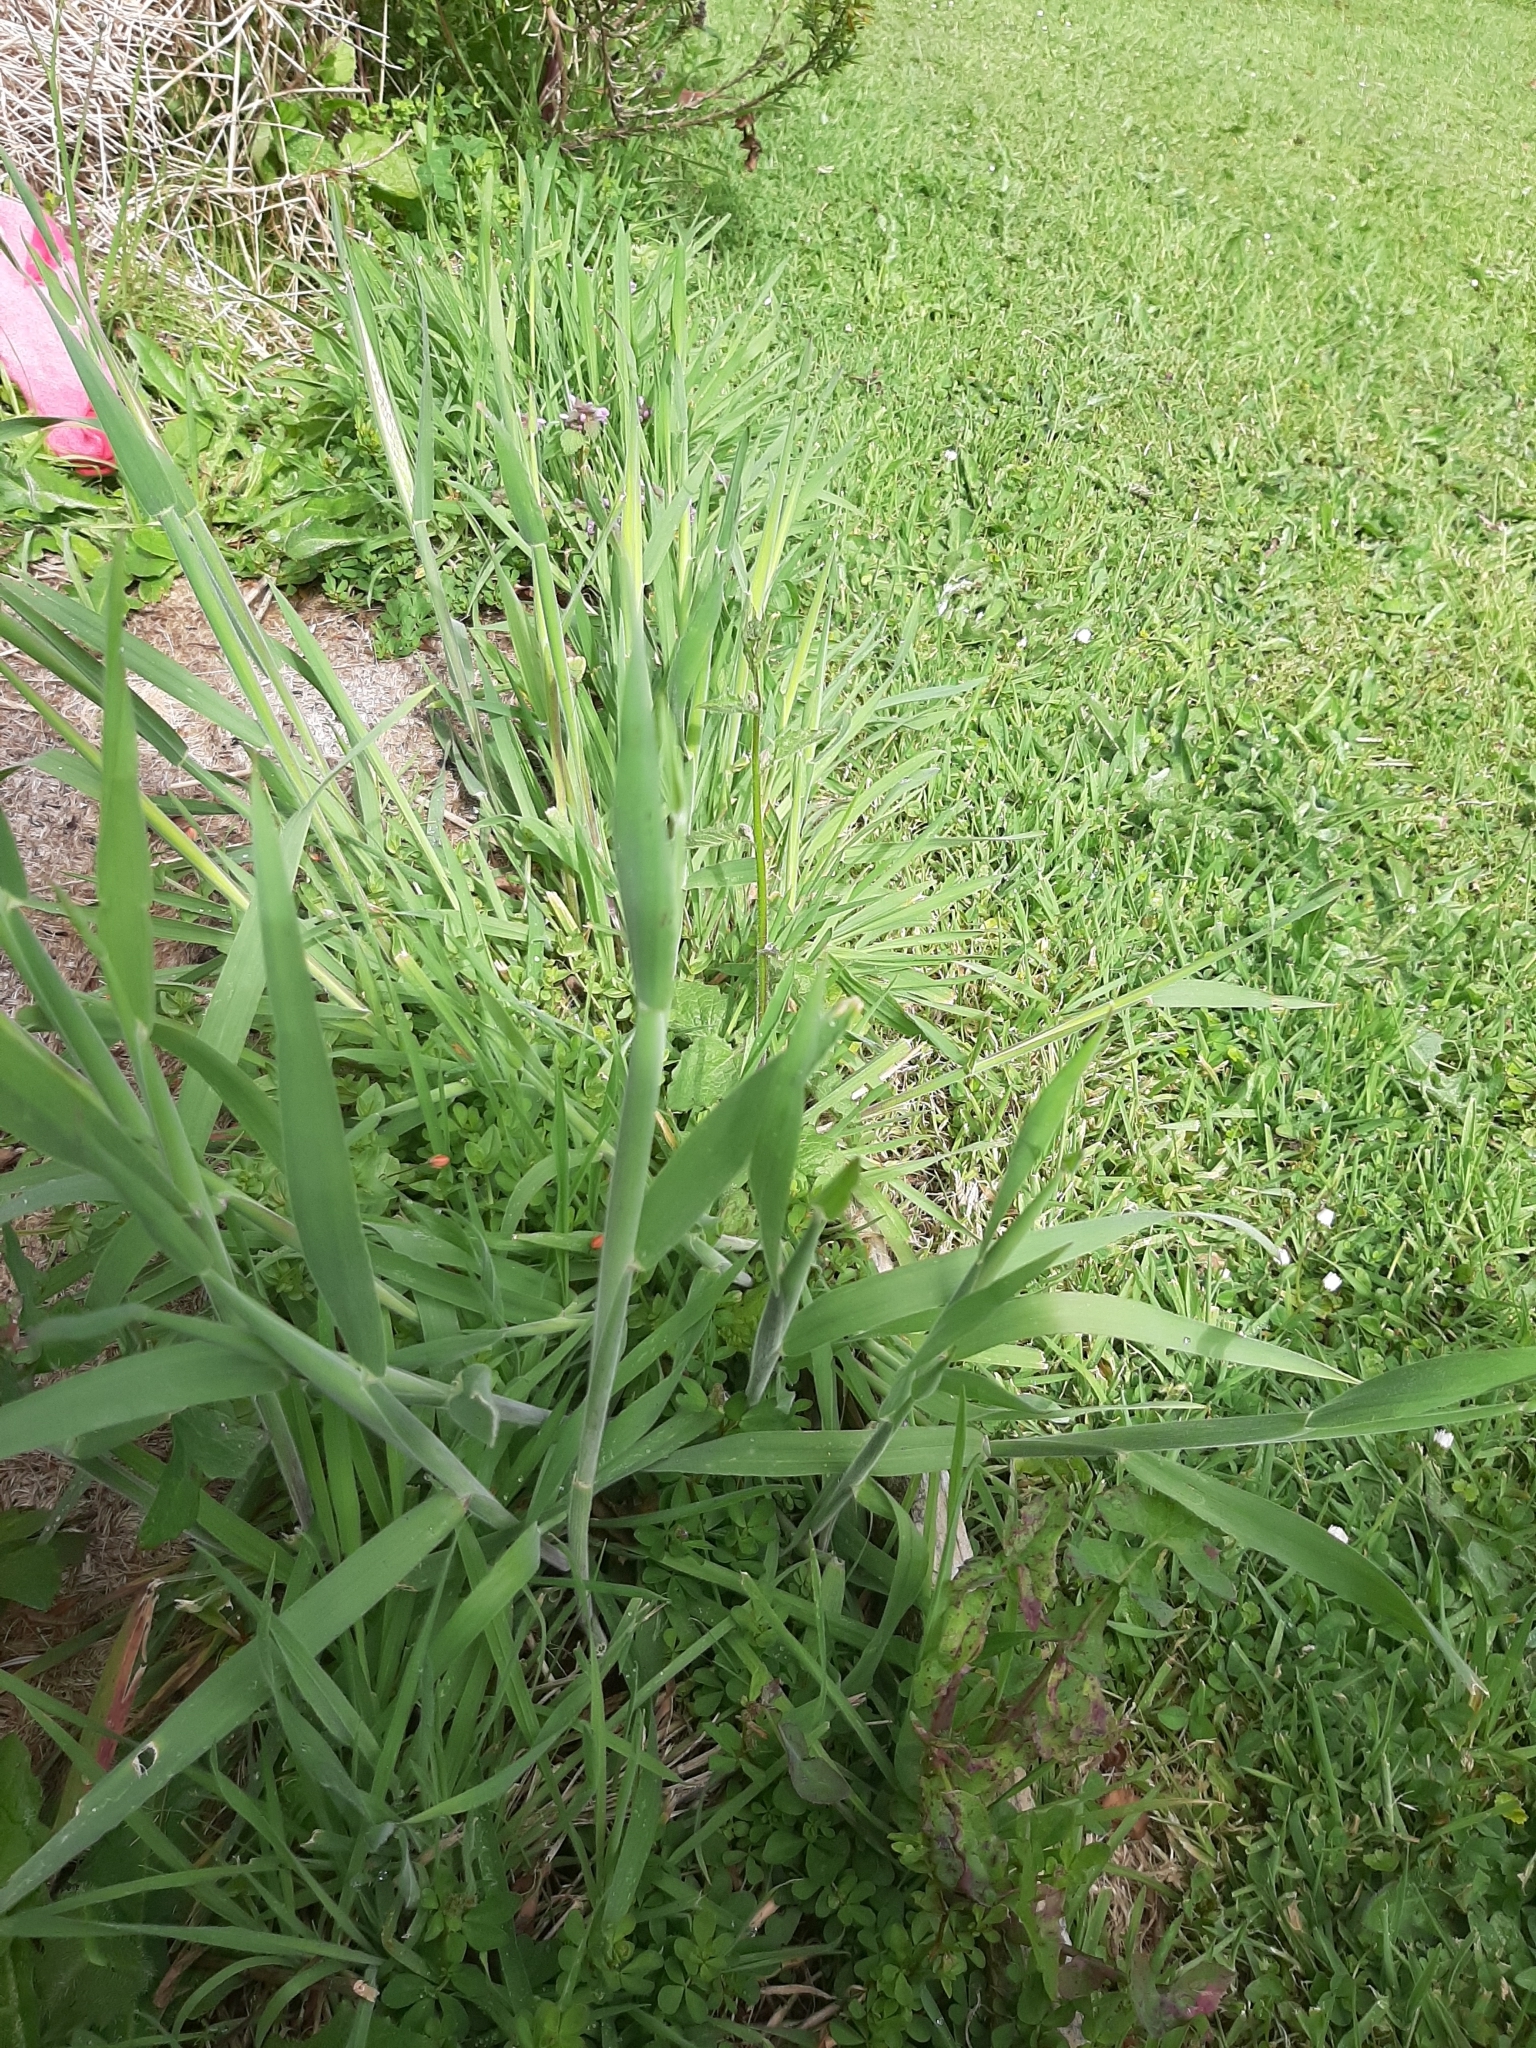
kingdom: Plantae
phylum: Tracheophyta
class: Liliopsida
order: Poales
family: Poaceae
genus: Holcus
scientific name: Holcus lanatus
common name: Yorkshire-fog
